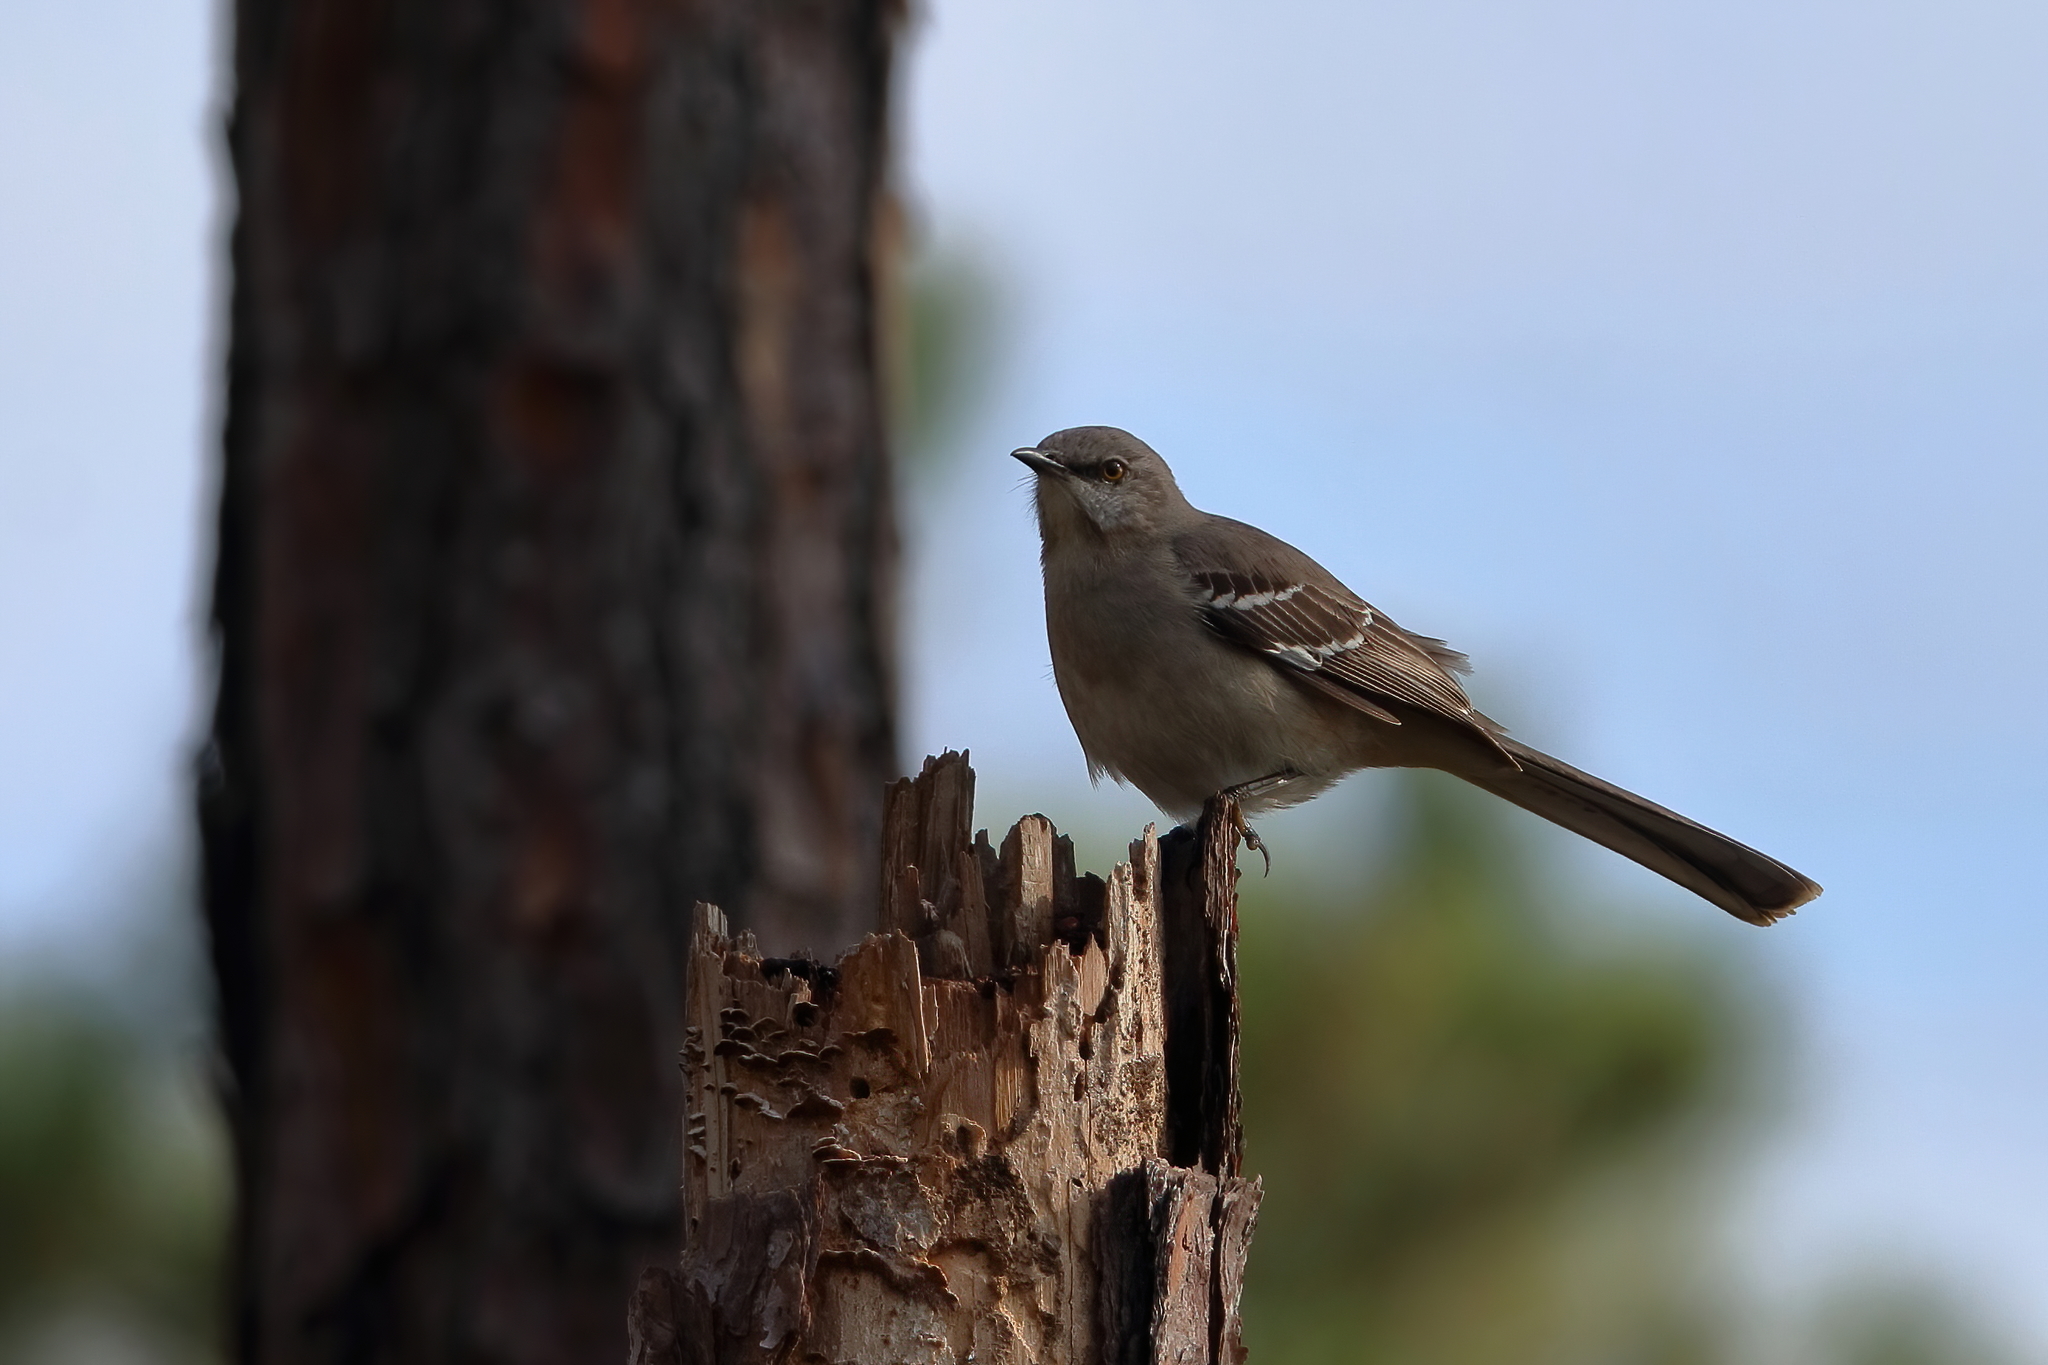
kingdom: Animalia
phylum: Chordata
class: Aves
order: Passeriformes
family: Mimidae
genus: Mimus
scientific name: Mimus polyglottos
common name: Northern mockingbird
